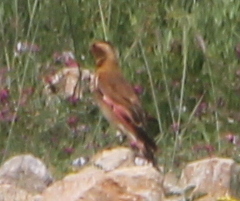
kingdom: Animalia
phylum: Chordata
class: Aves
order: Passeriformes
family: Fringillidae
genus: Rhodopechys
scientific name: Rhodopechys sanguineus
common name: Crimson-winged finch
